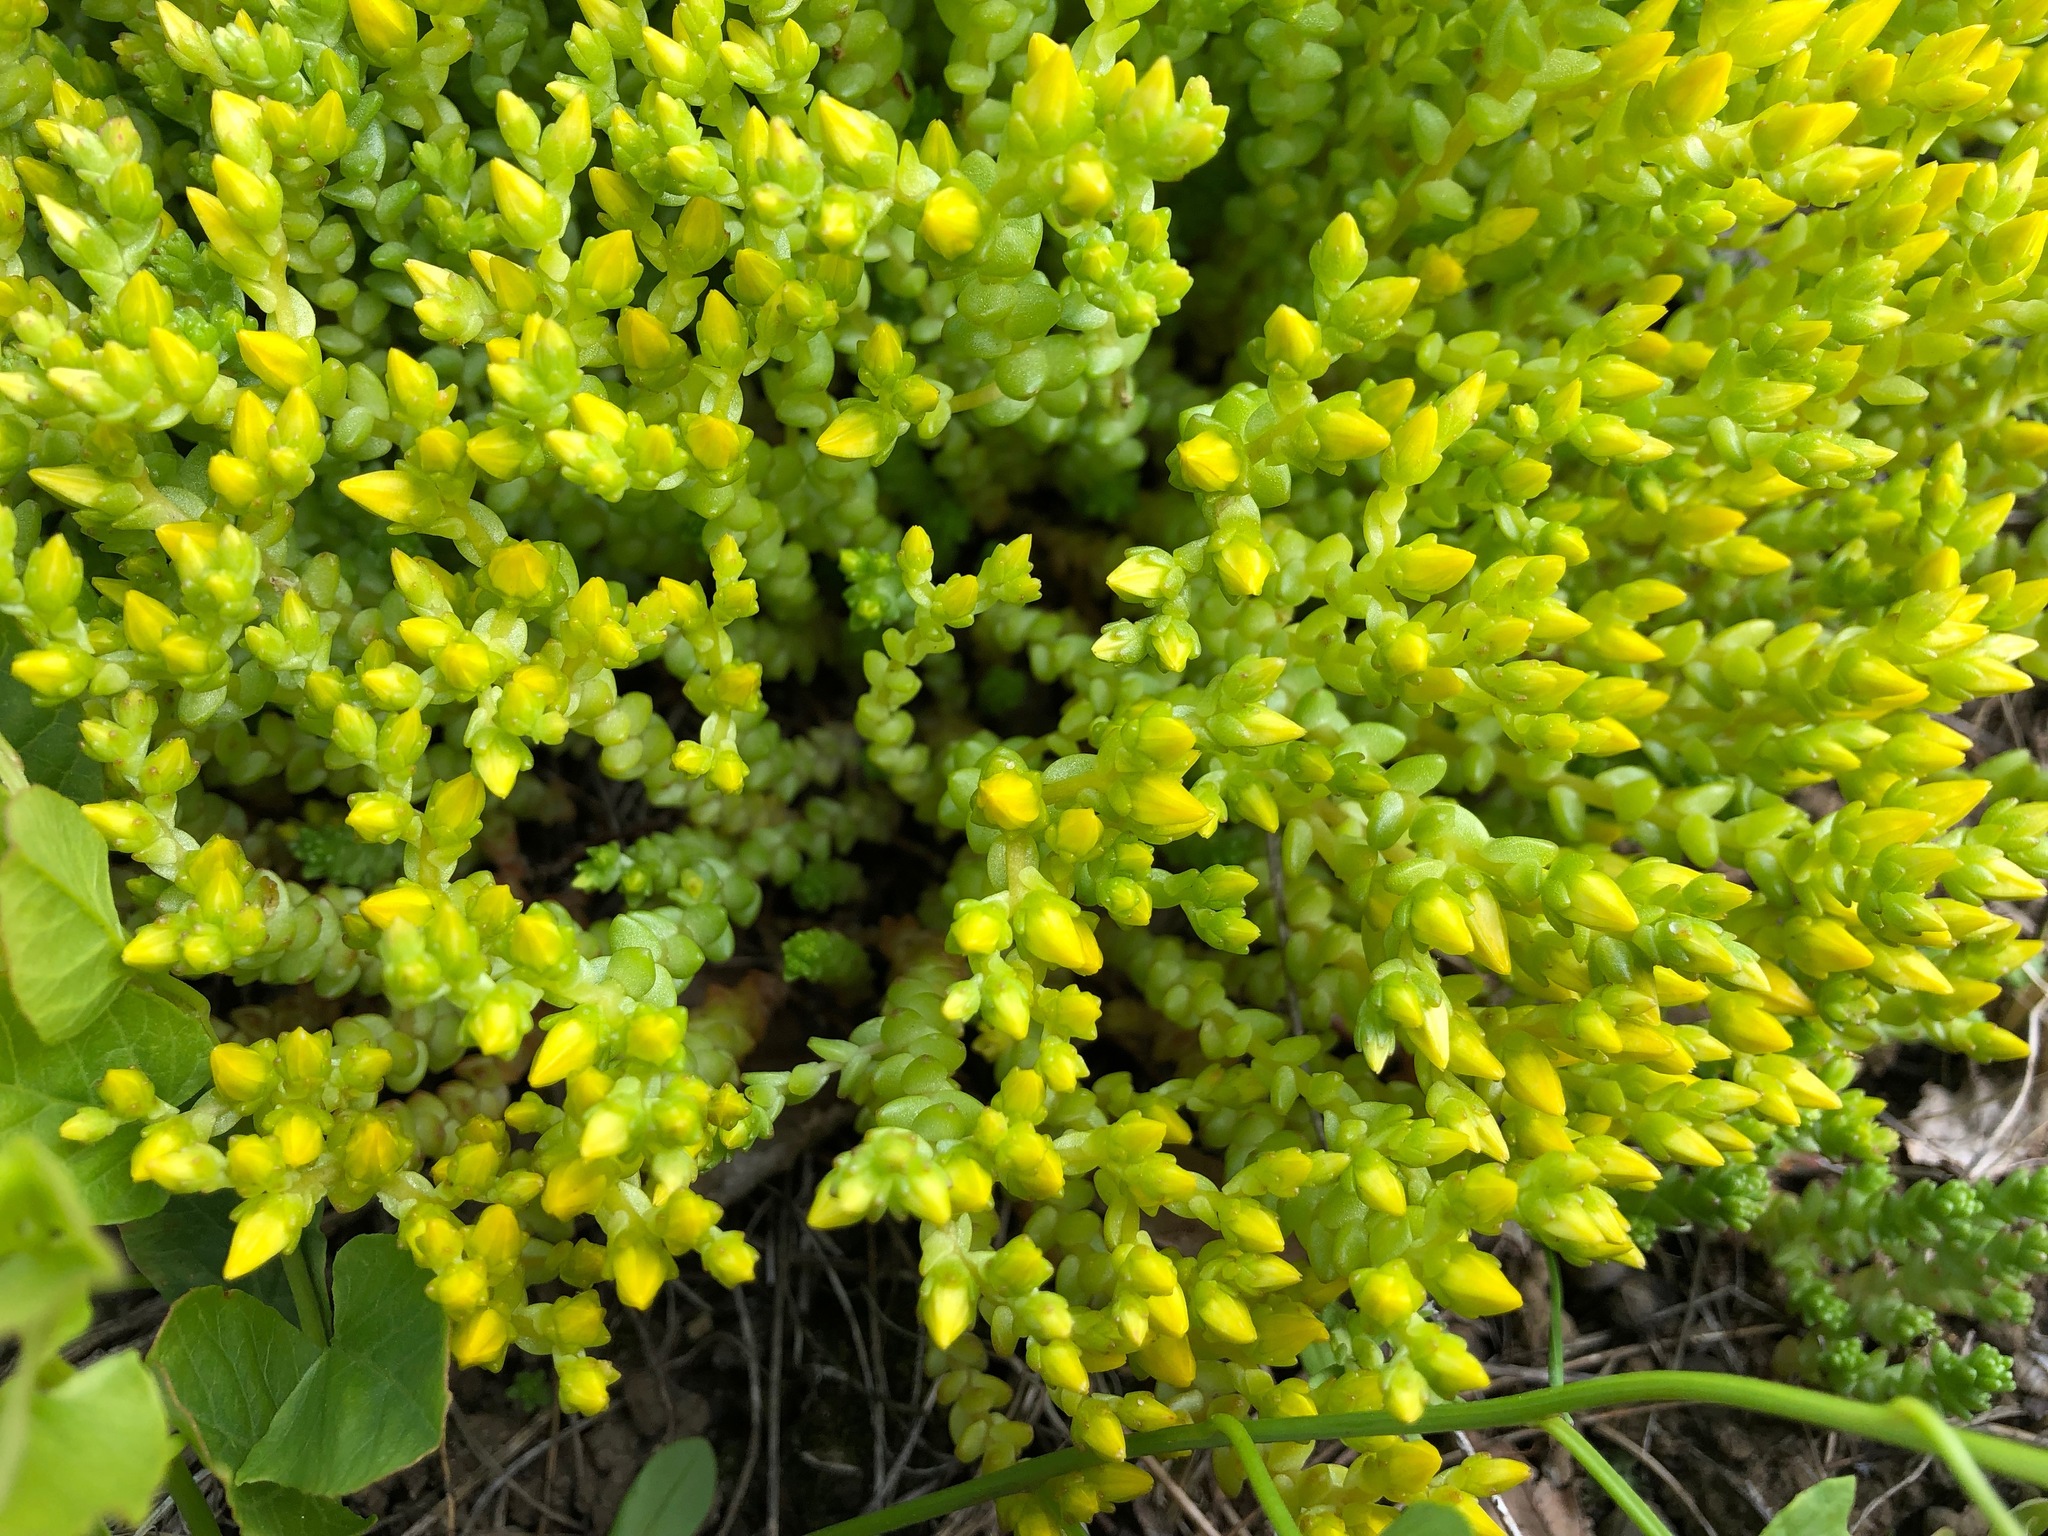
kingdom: Plantae
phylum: Tracheophyta
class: Magnoliopsida
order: Saxifragales
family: Crassulaceae
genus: Sedum
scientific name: Sedum acre
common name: Biting stonecrop
